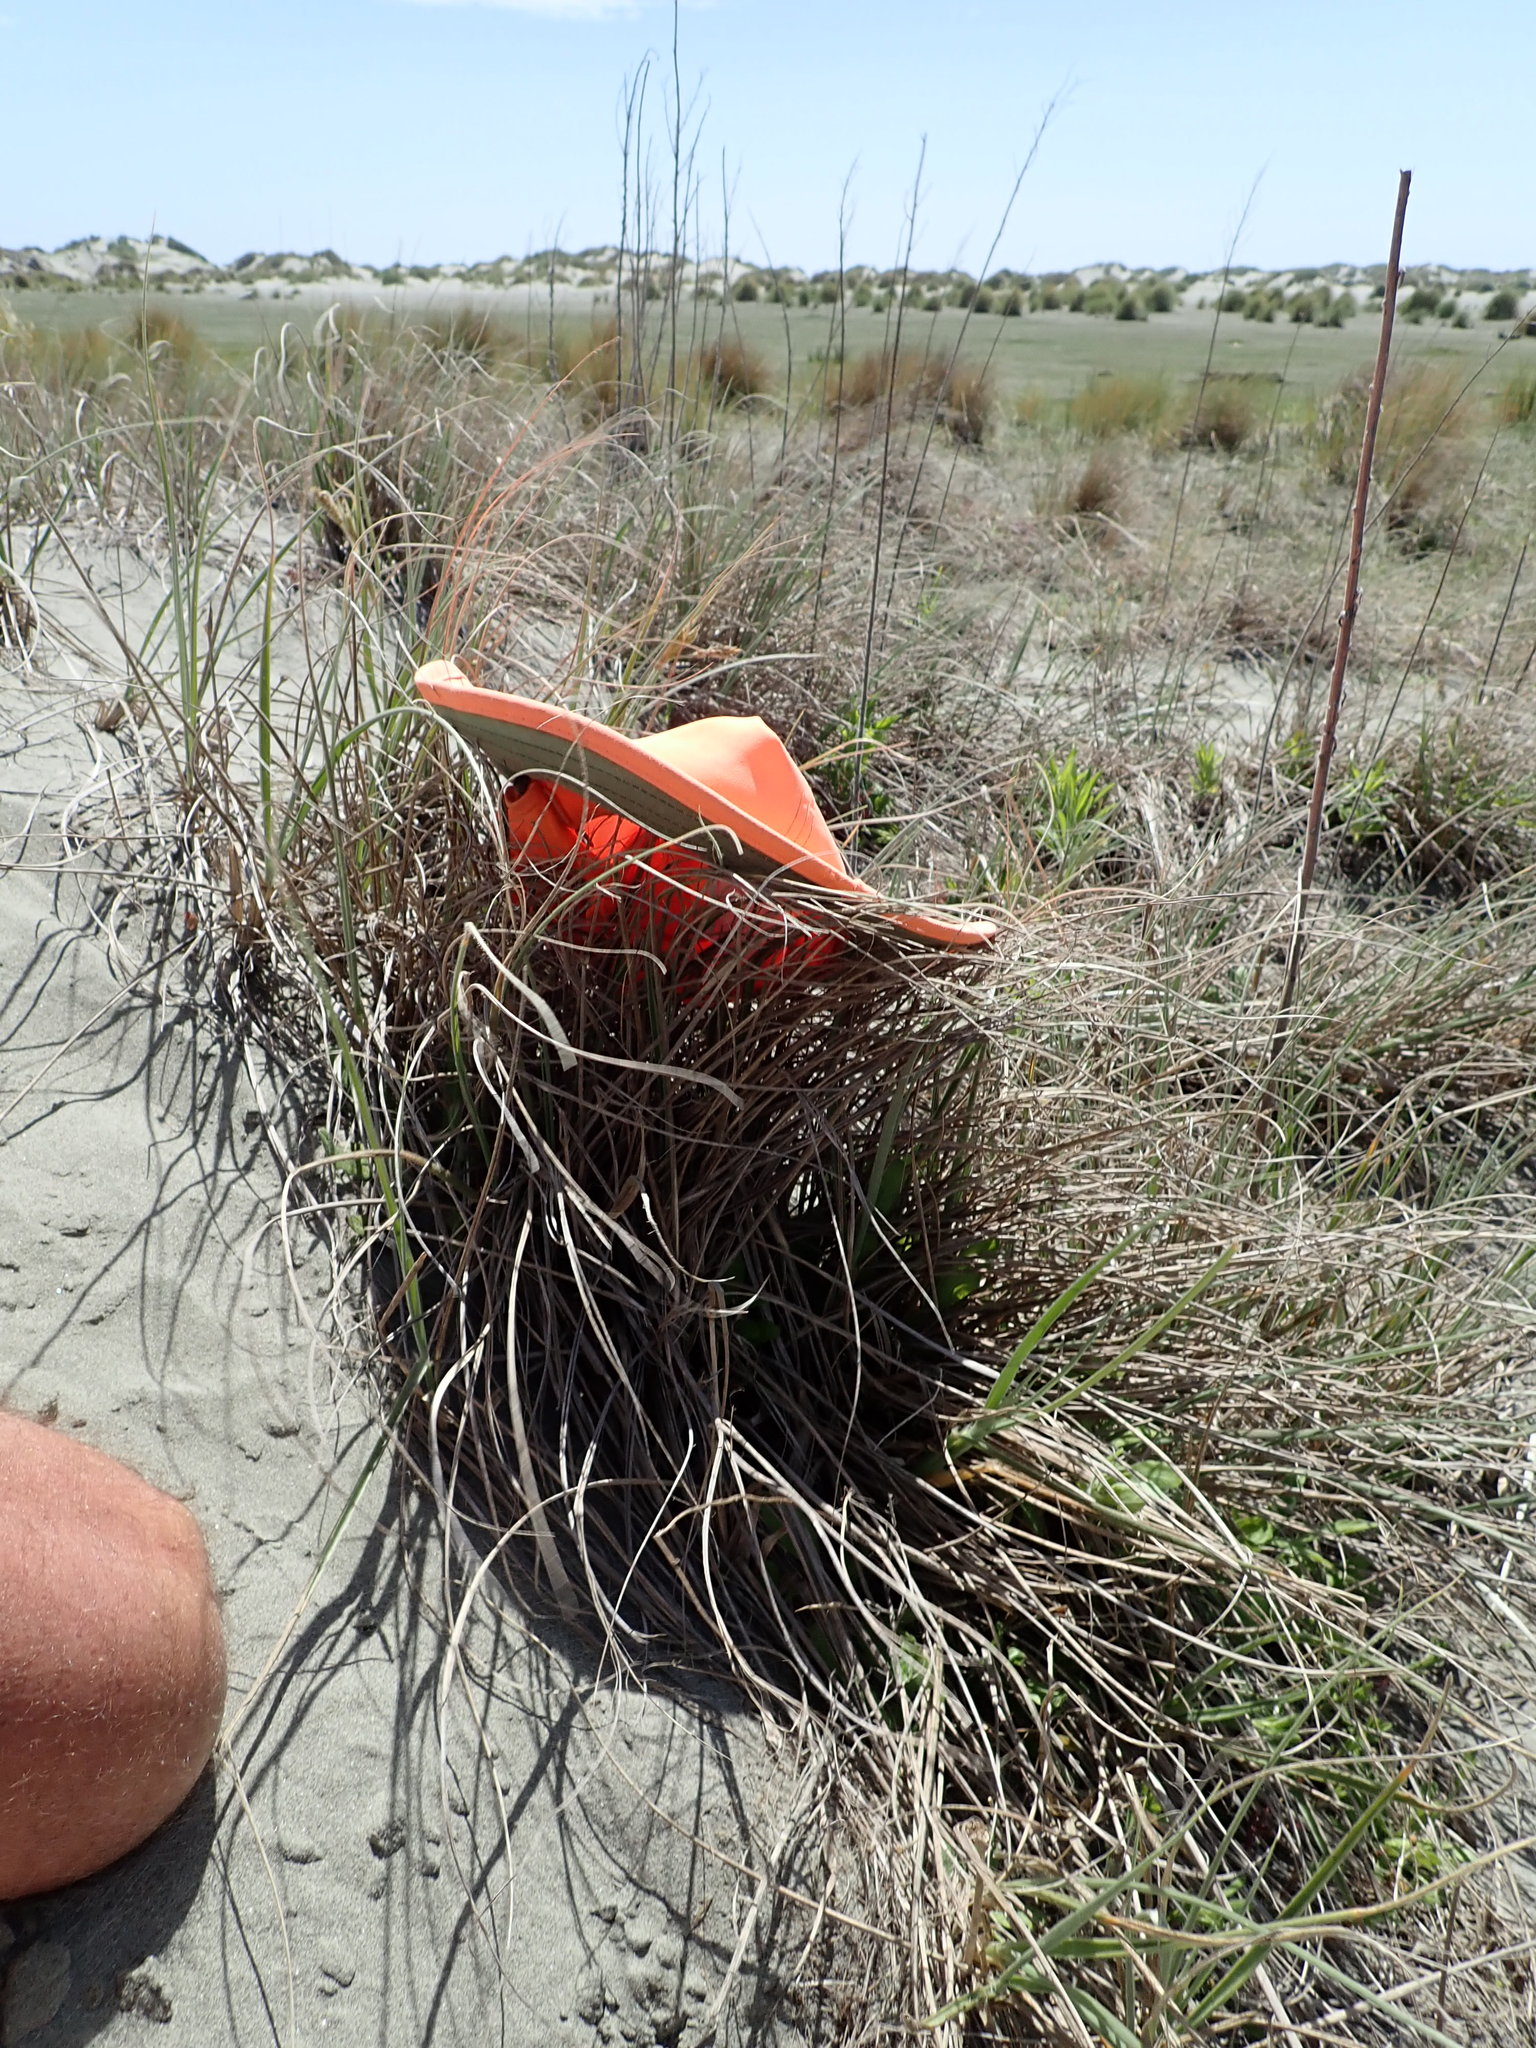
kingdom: Animalia
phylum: Arthropoda
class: Arachnida
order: Araneae
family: Theridiidae
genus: Latrodectus
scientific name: Latrodectus katipo
